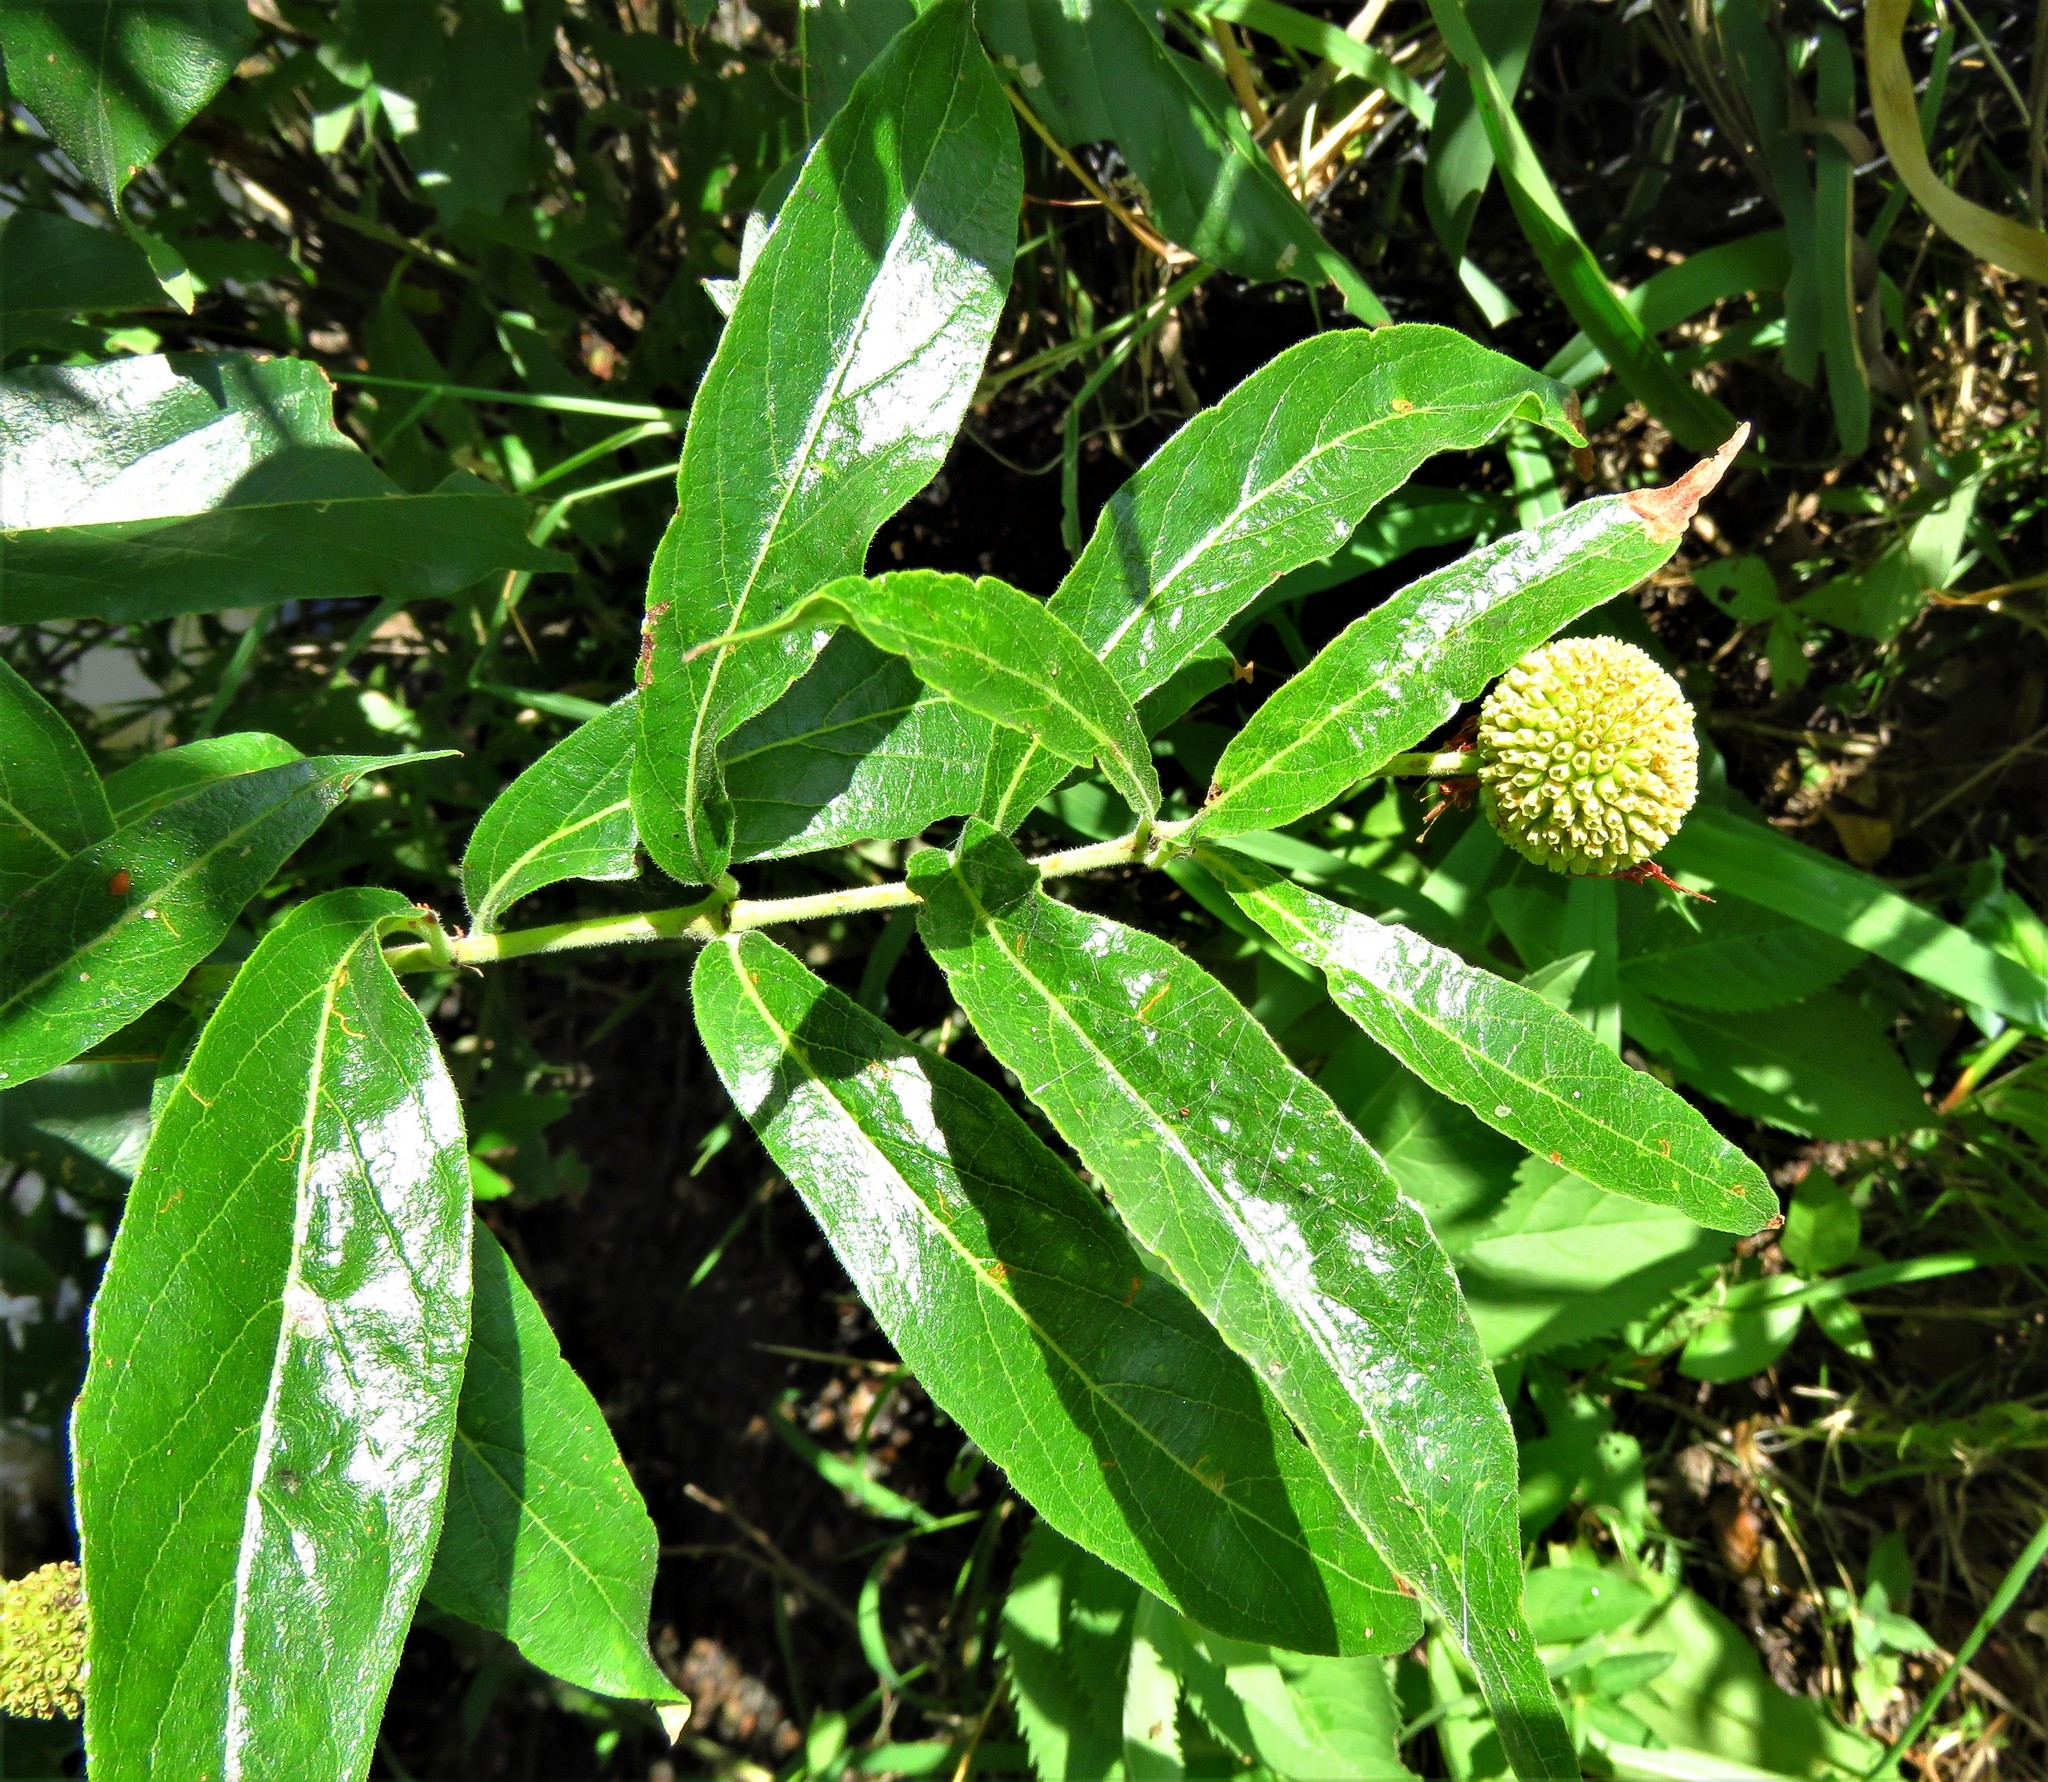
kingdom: Plantae
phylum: Tracheophyta
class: Magnoliopsida
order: Gentianales
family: Rubiaceae
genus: Cephalanthus
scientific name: Cephalanthus occidentalis
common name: Button-willow
